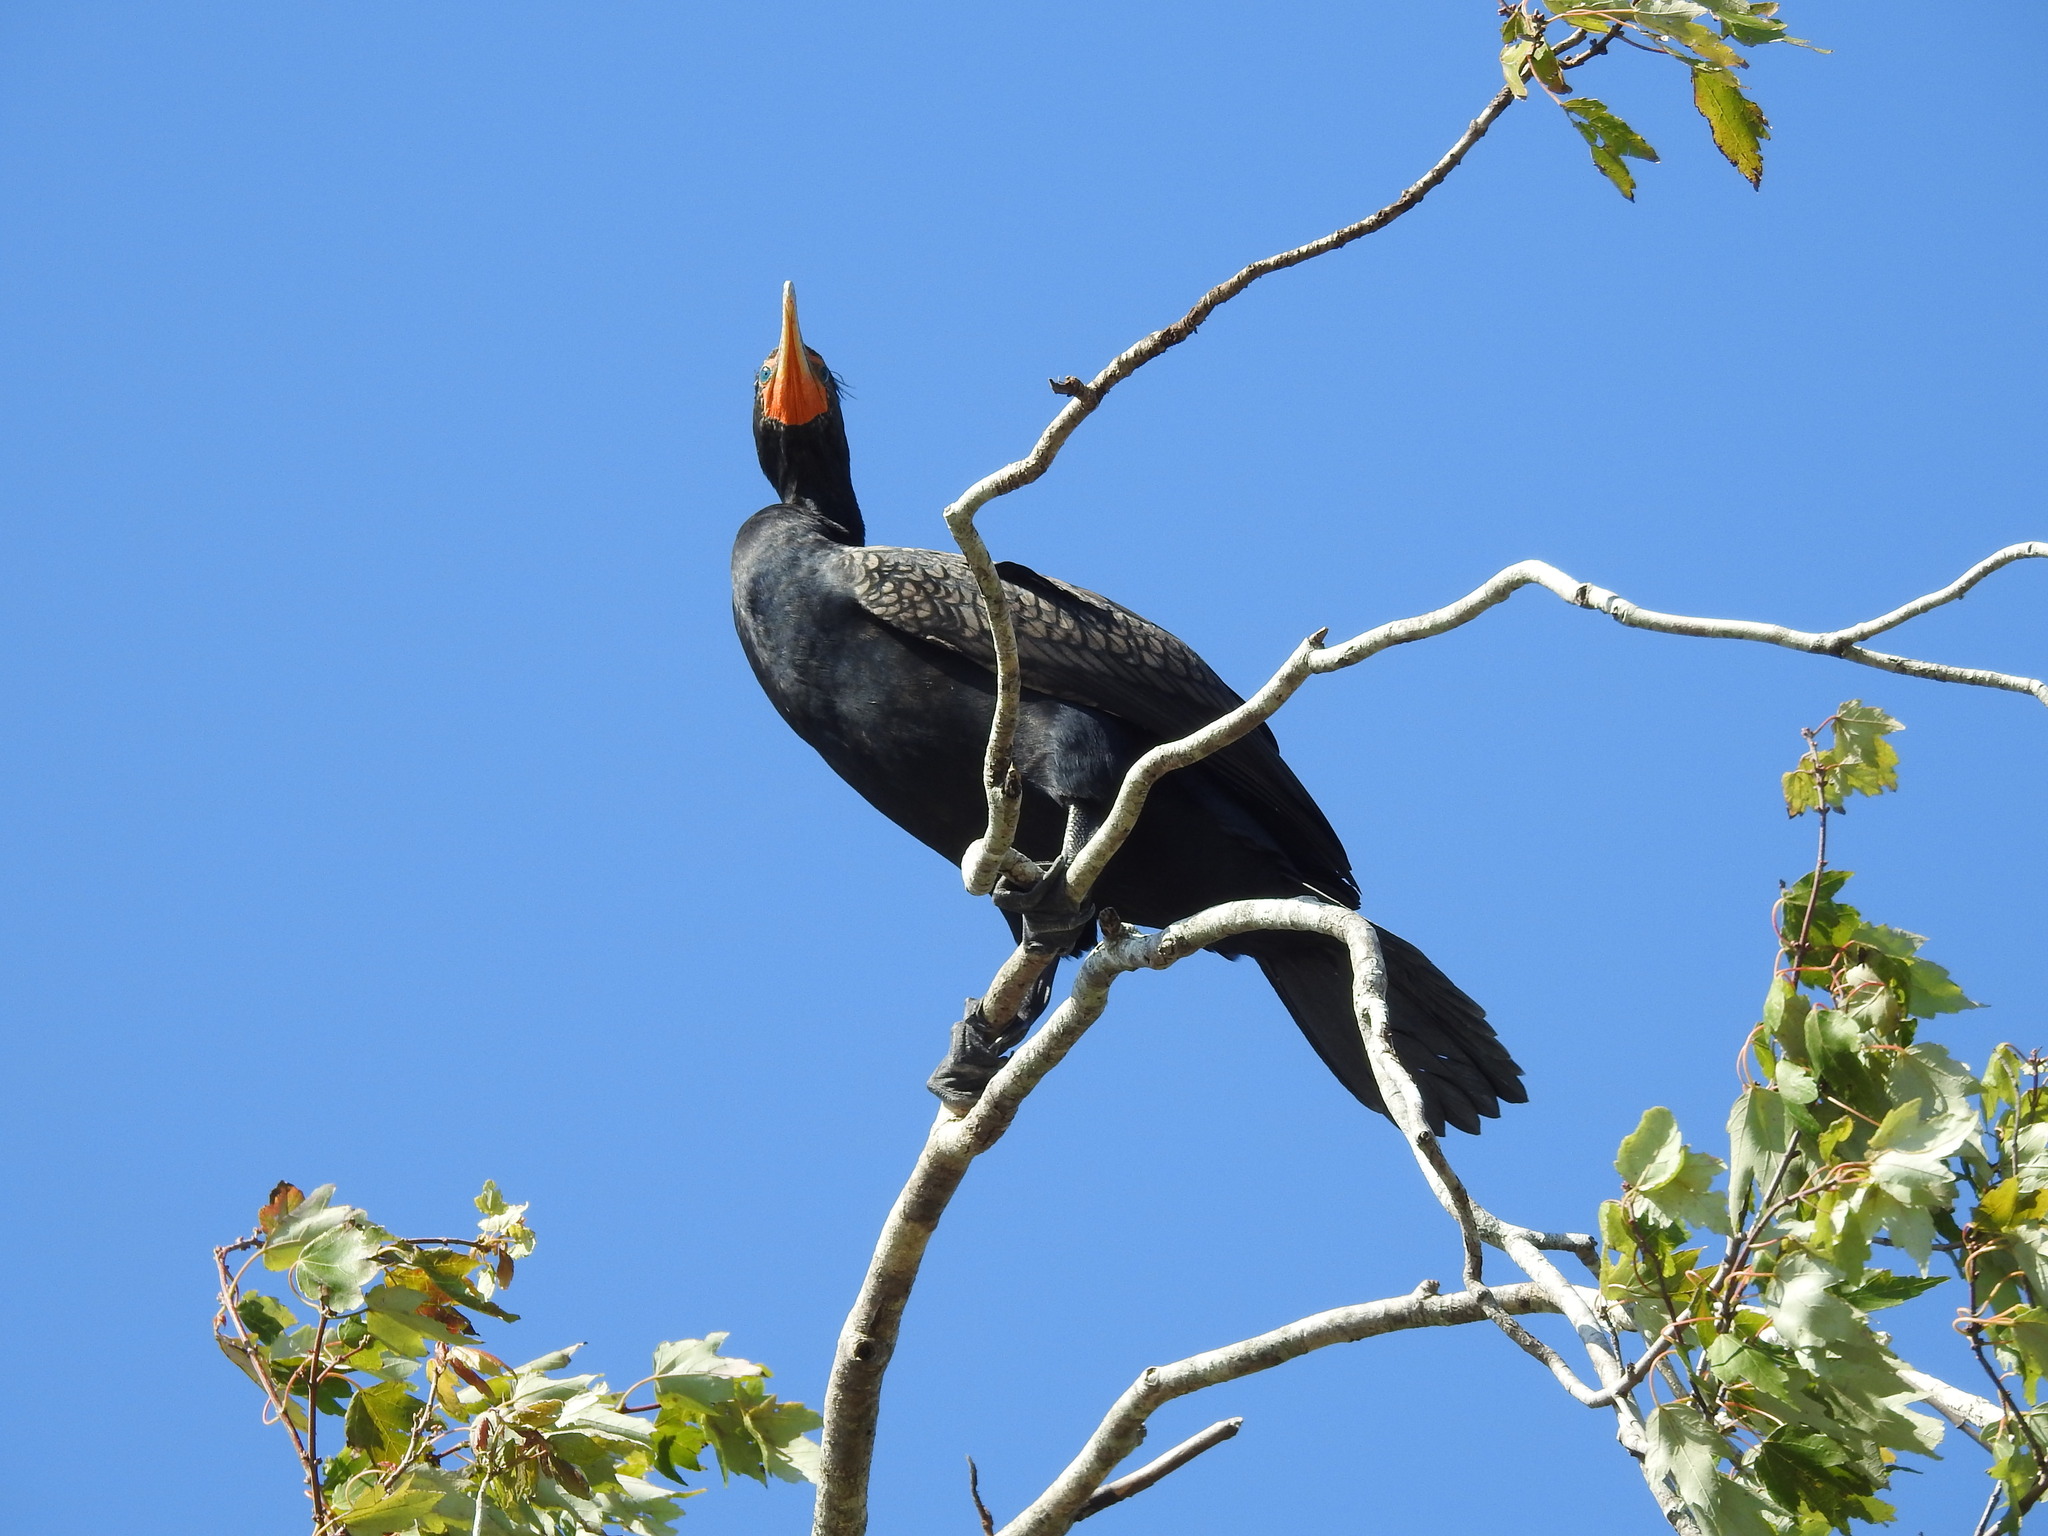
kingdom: Animalia
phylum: Chordata
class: Aves
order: Suliformes
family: Phalacrocoracidae
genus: Phalacrocorax
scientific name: Phalacrocorax auritus
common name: Double-crested cormorant
